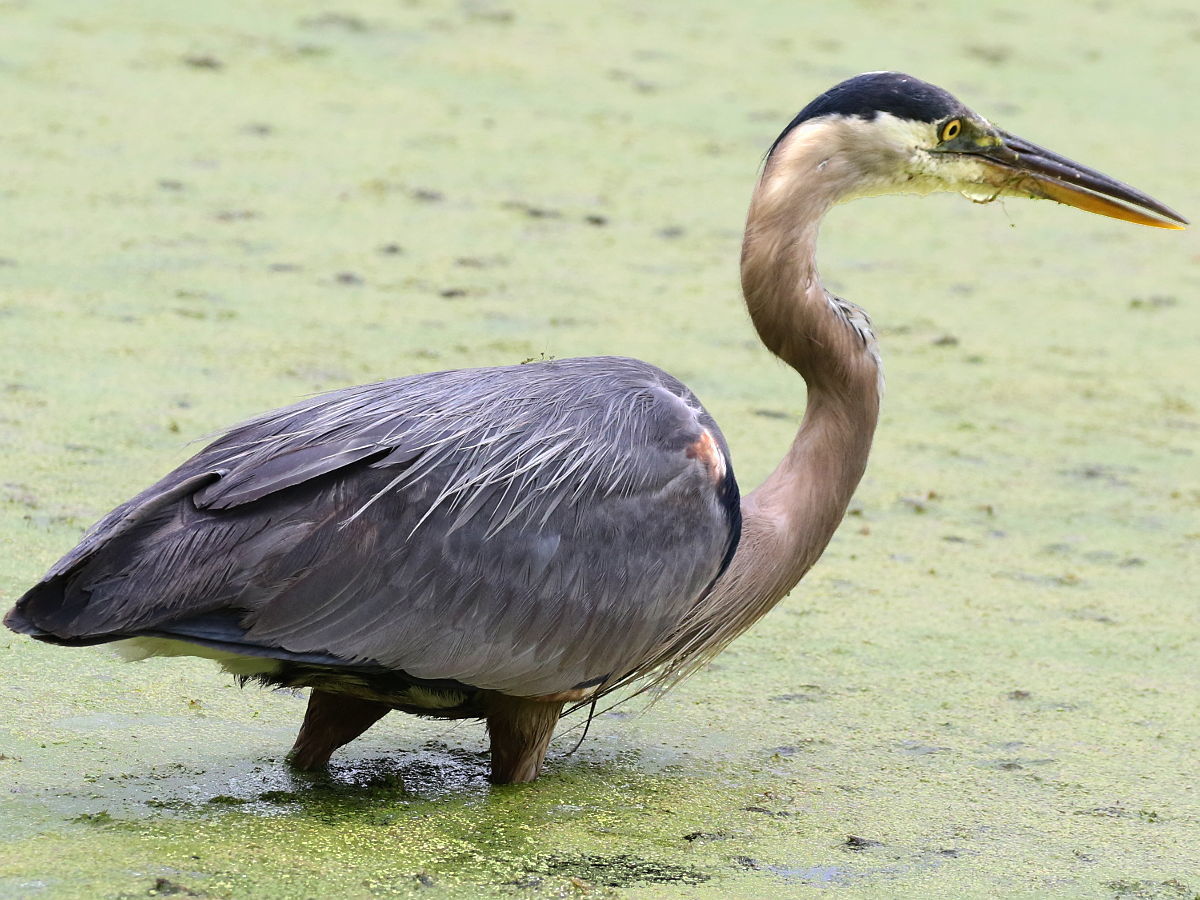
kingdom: Animalia
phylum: Chordata
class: Aves
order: Pelecaniformes
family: Ardeidae
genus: Ardea
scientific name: Ardea herodias
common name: Great blue heron
